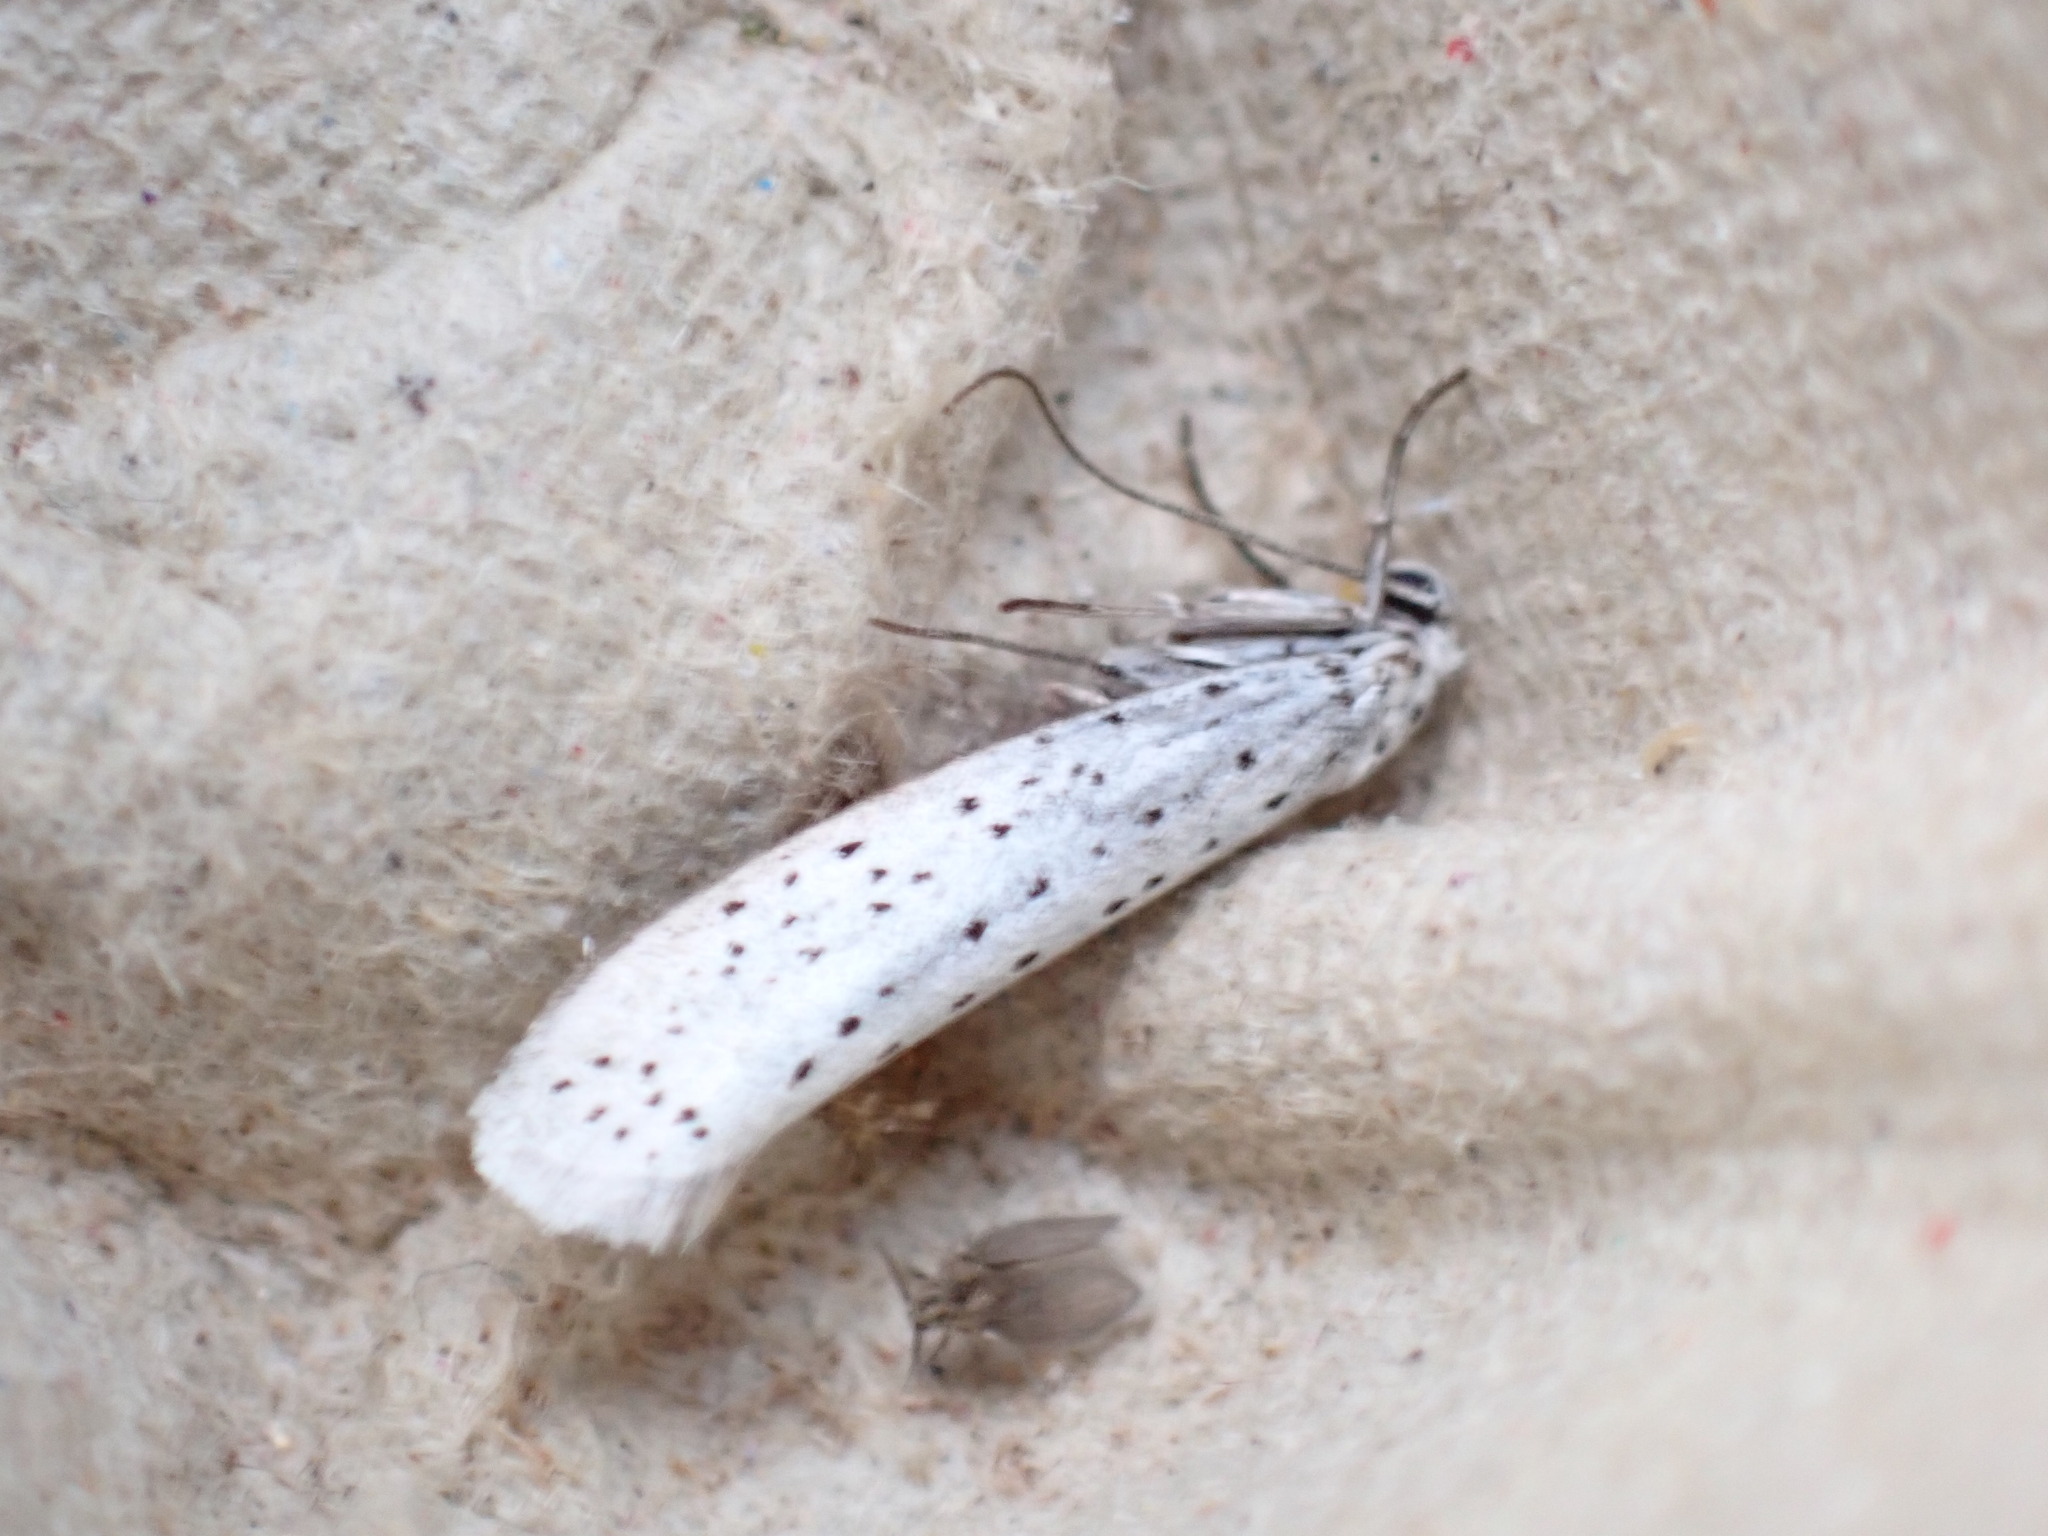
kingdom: Animalia
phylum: Arthropoda
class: Insecta
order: Lepidoptera
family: Yponomeutidae
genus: Yponomeuta
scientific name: Yponomeuta evonymella
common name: Bird-cherry ermine
